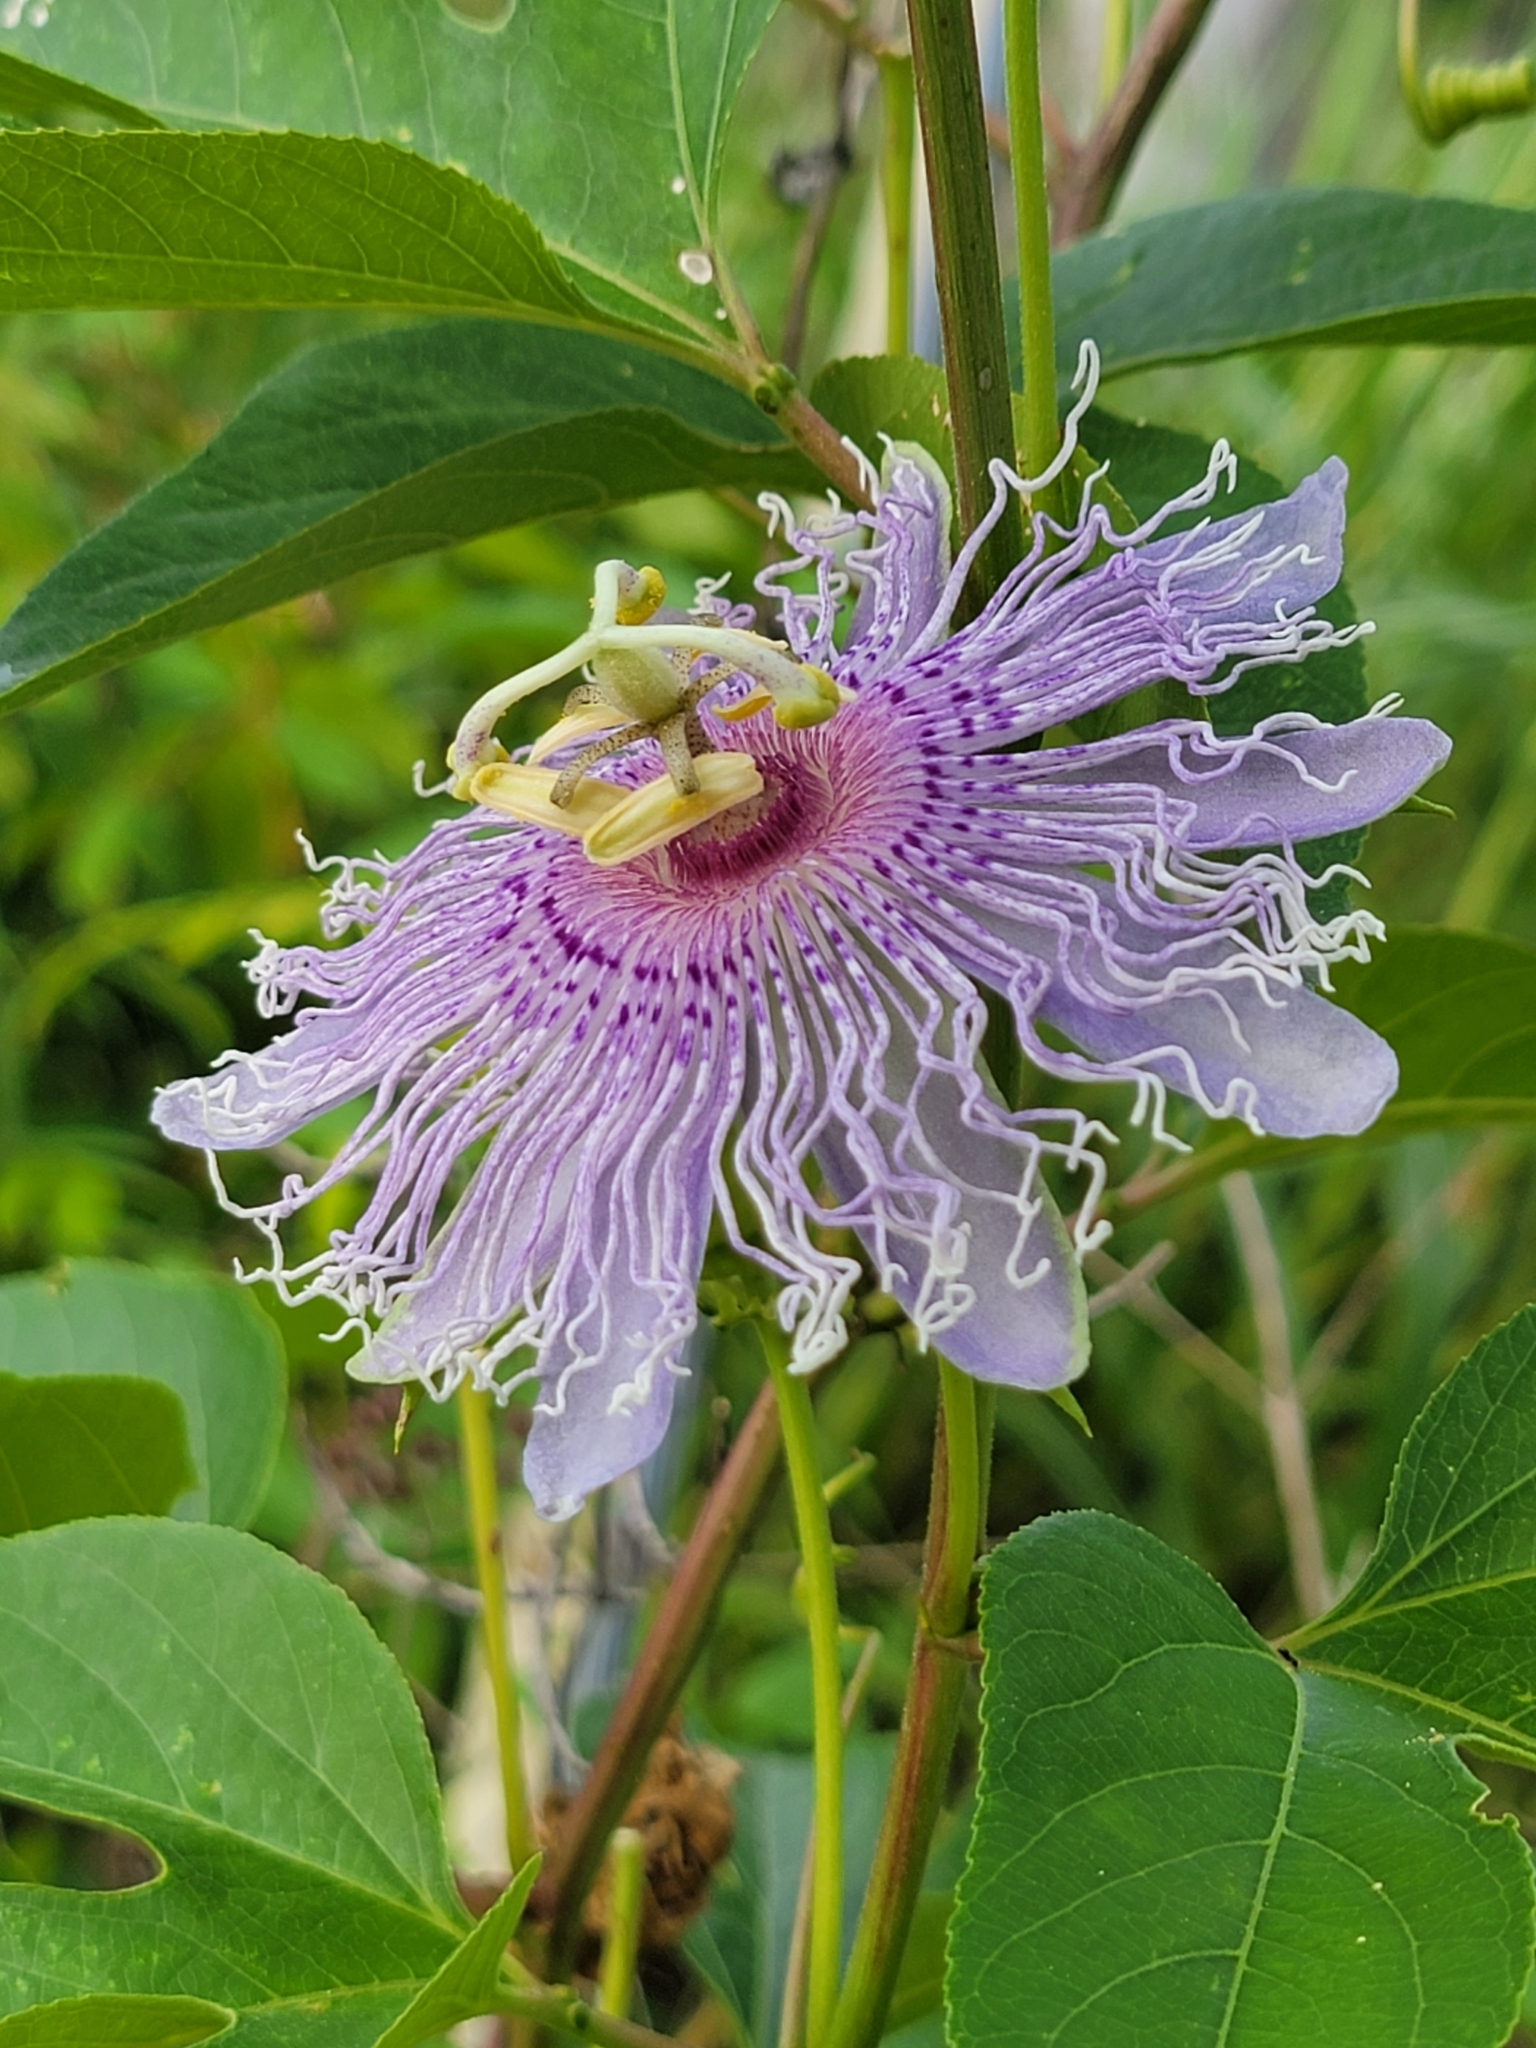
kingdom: Plantae
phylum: Tracheophyta
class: Magnoliopsida
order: Malpighiales
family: Passifloraceae
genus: Passiflora
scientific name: Passiflora incarnata
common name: Apricot-vine
